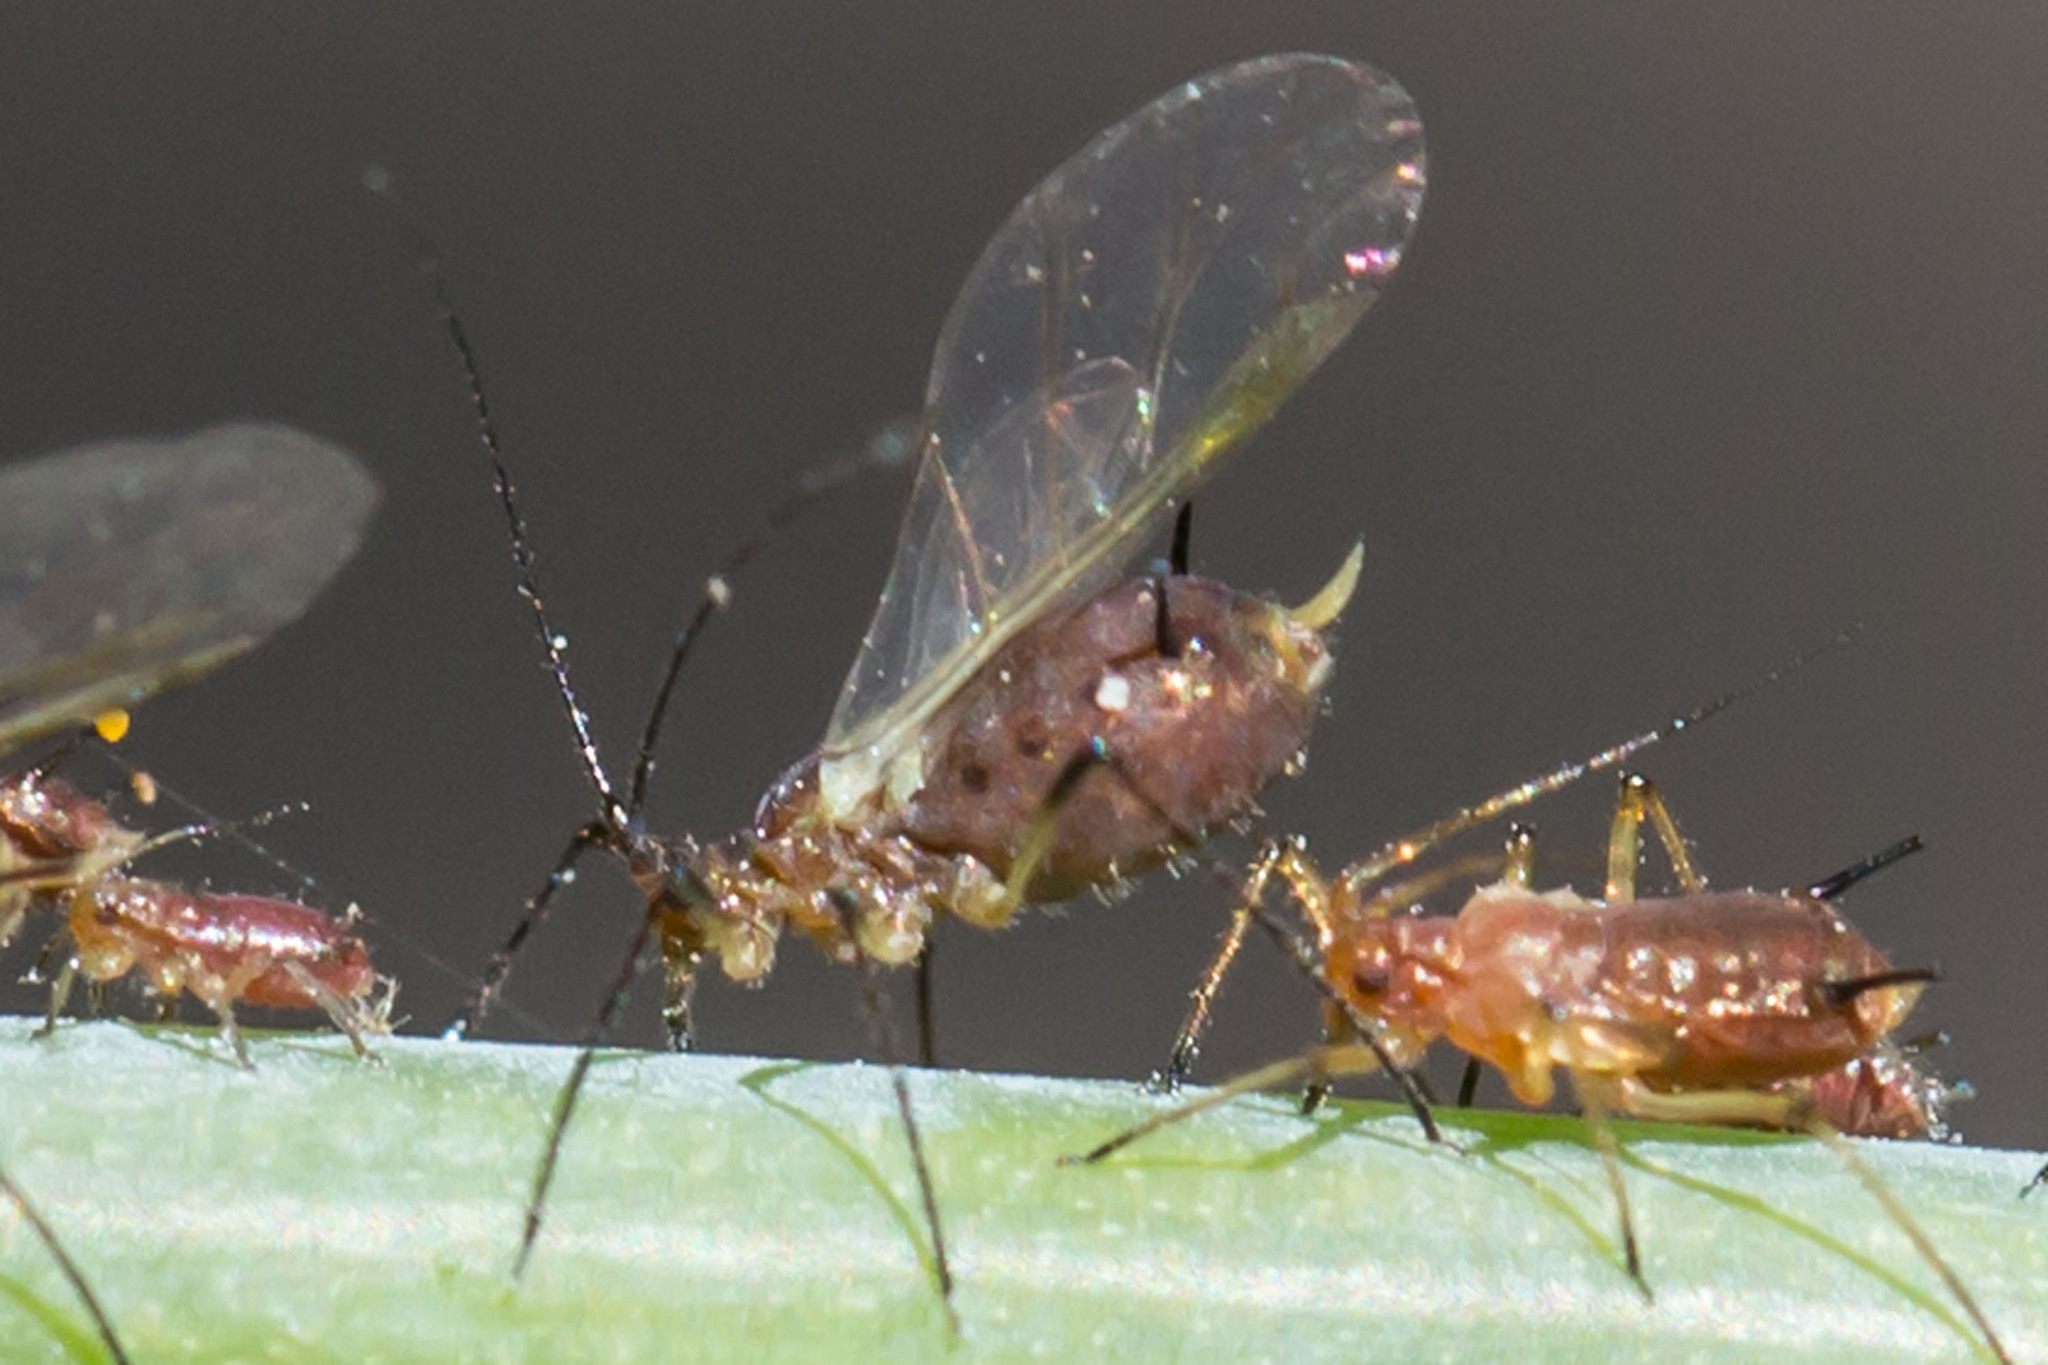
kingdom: Animalia
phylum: Arthropoda
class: Insecta
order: Hemiptera
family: Aphididae
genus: Uroleucon
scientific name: Uroleucon impatiensicolens
